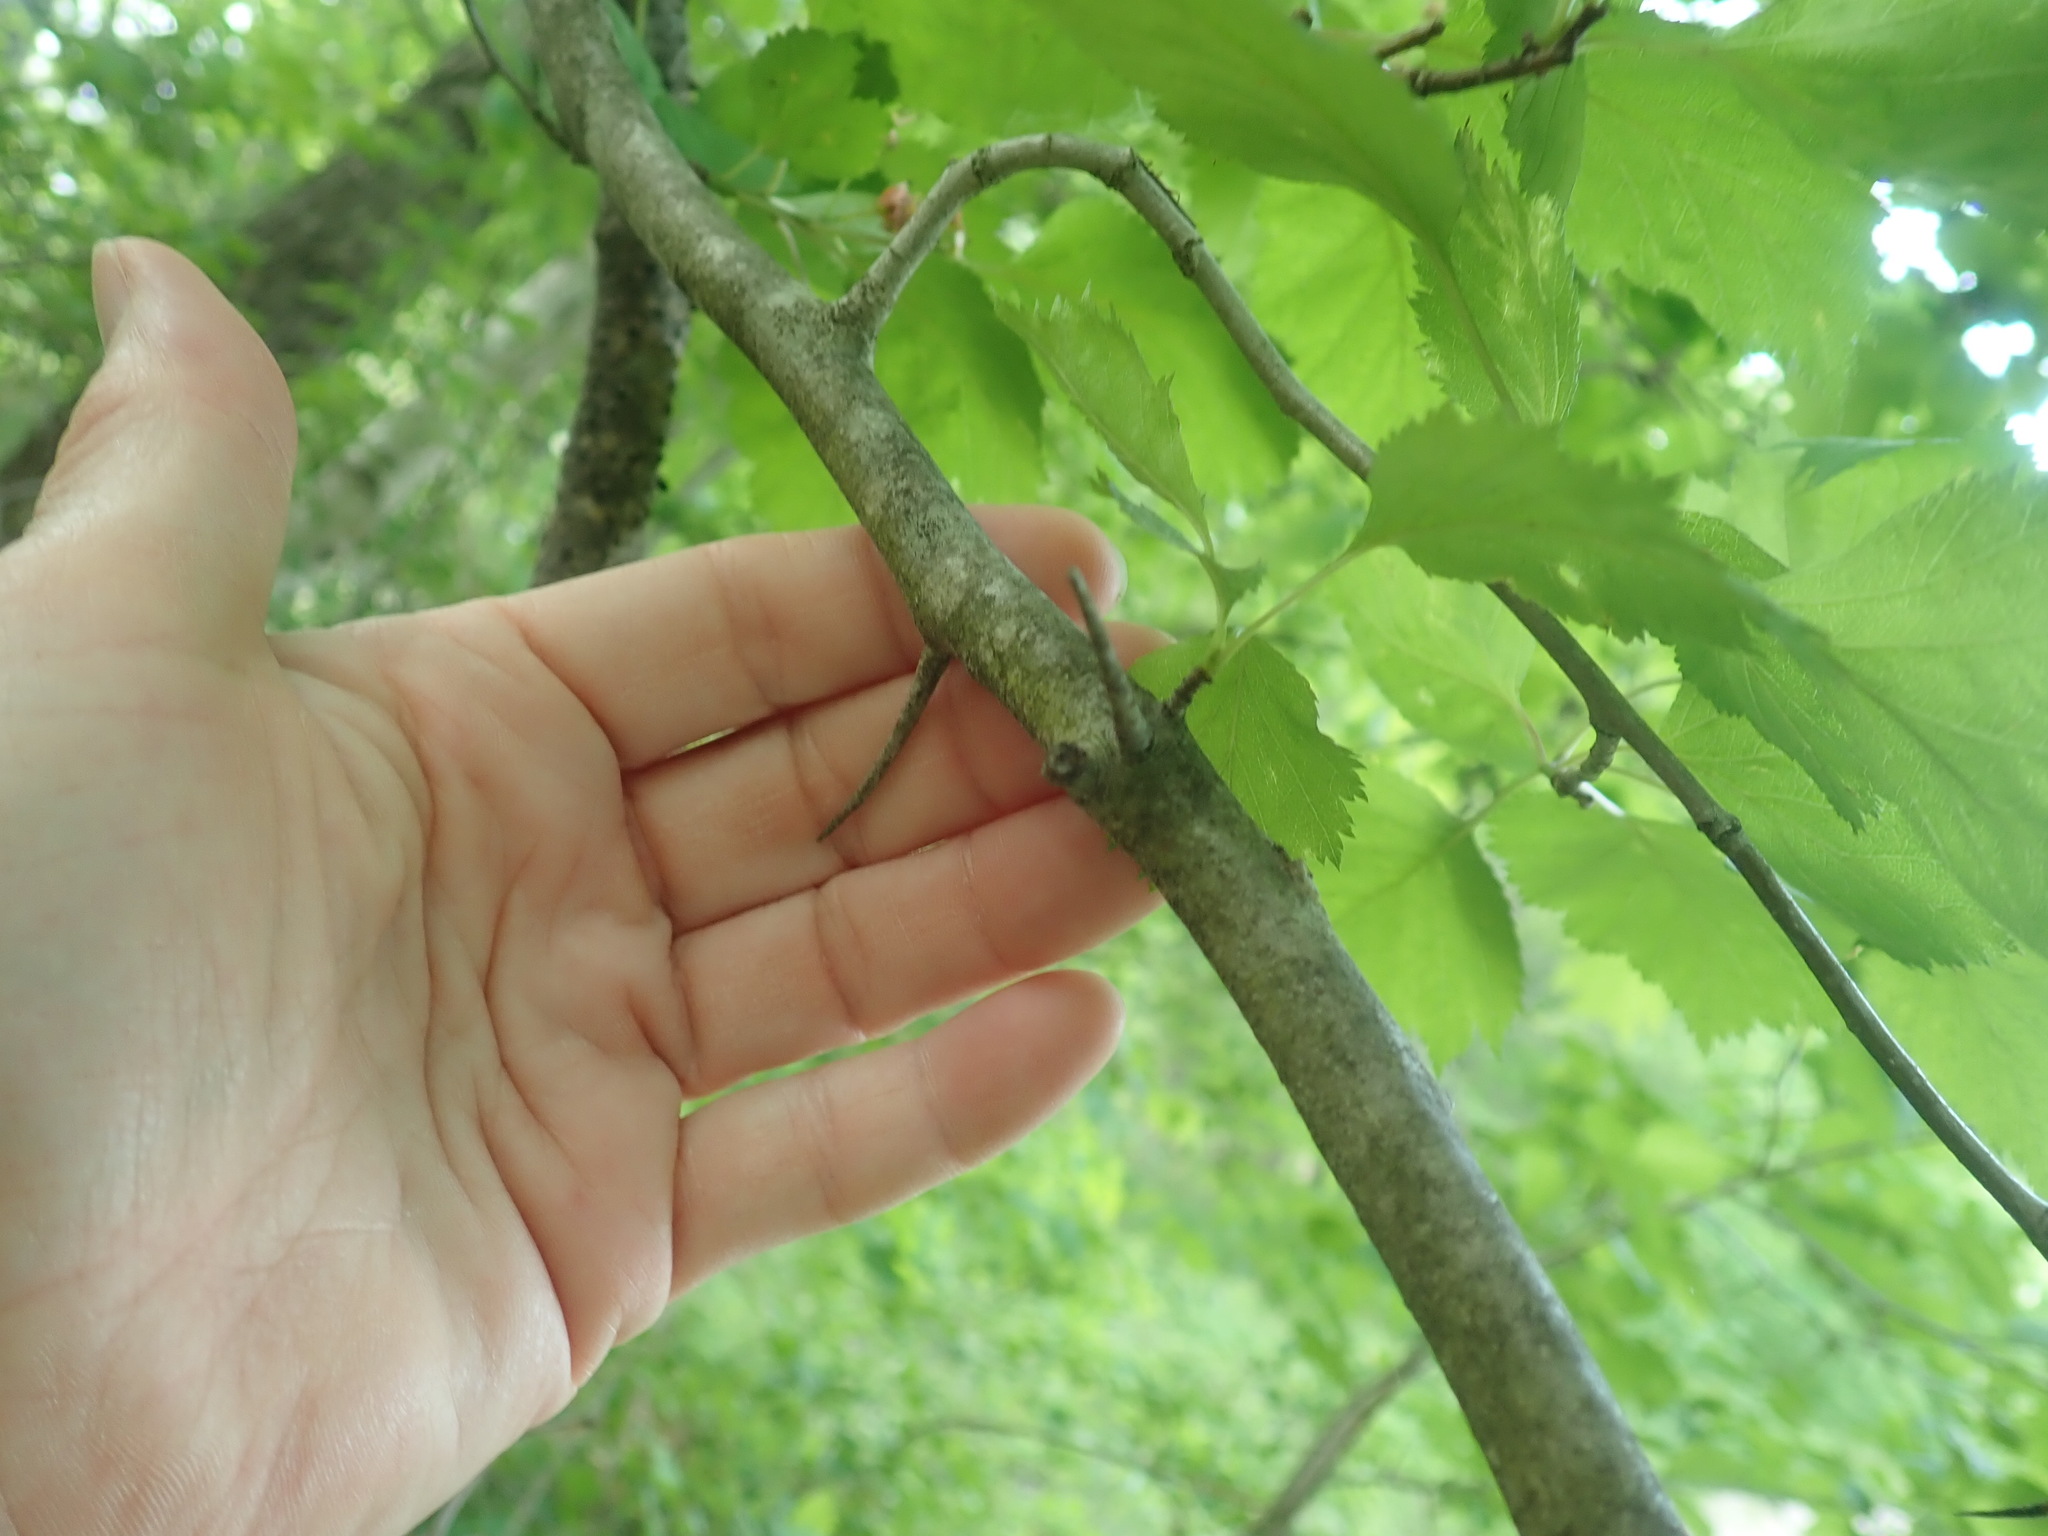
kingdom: Plantae
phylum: Tracheophyta
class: Magnoliopsida
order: Rosales
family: Rosaceae
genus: Crataegus
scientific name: Crataegus
